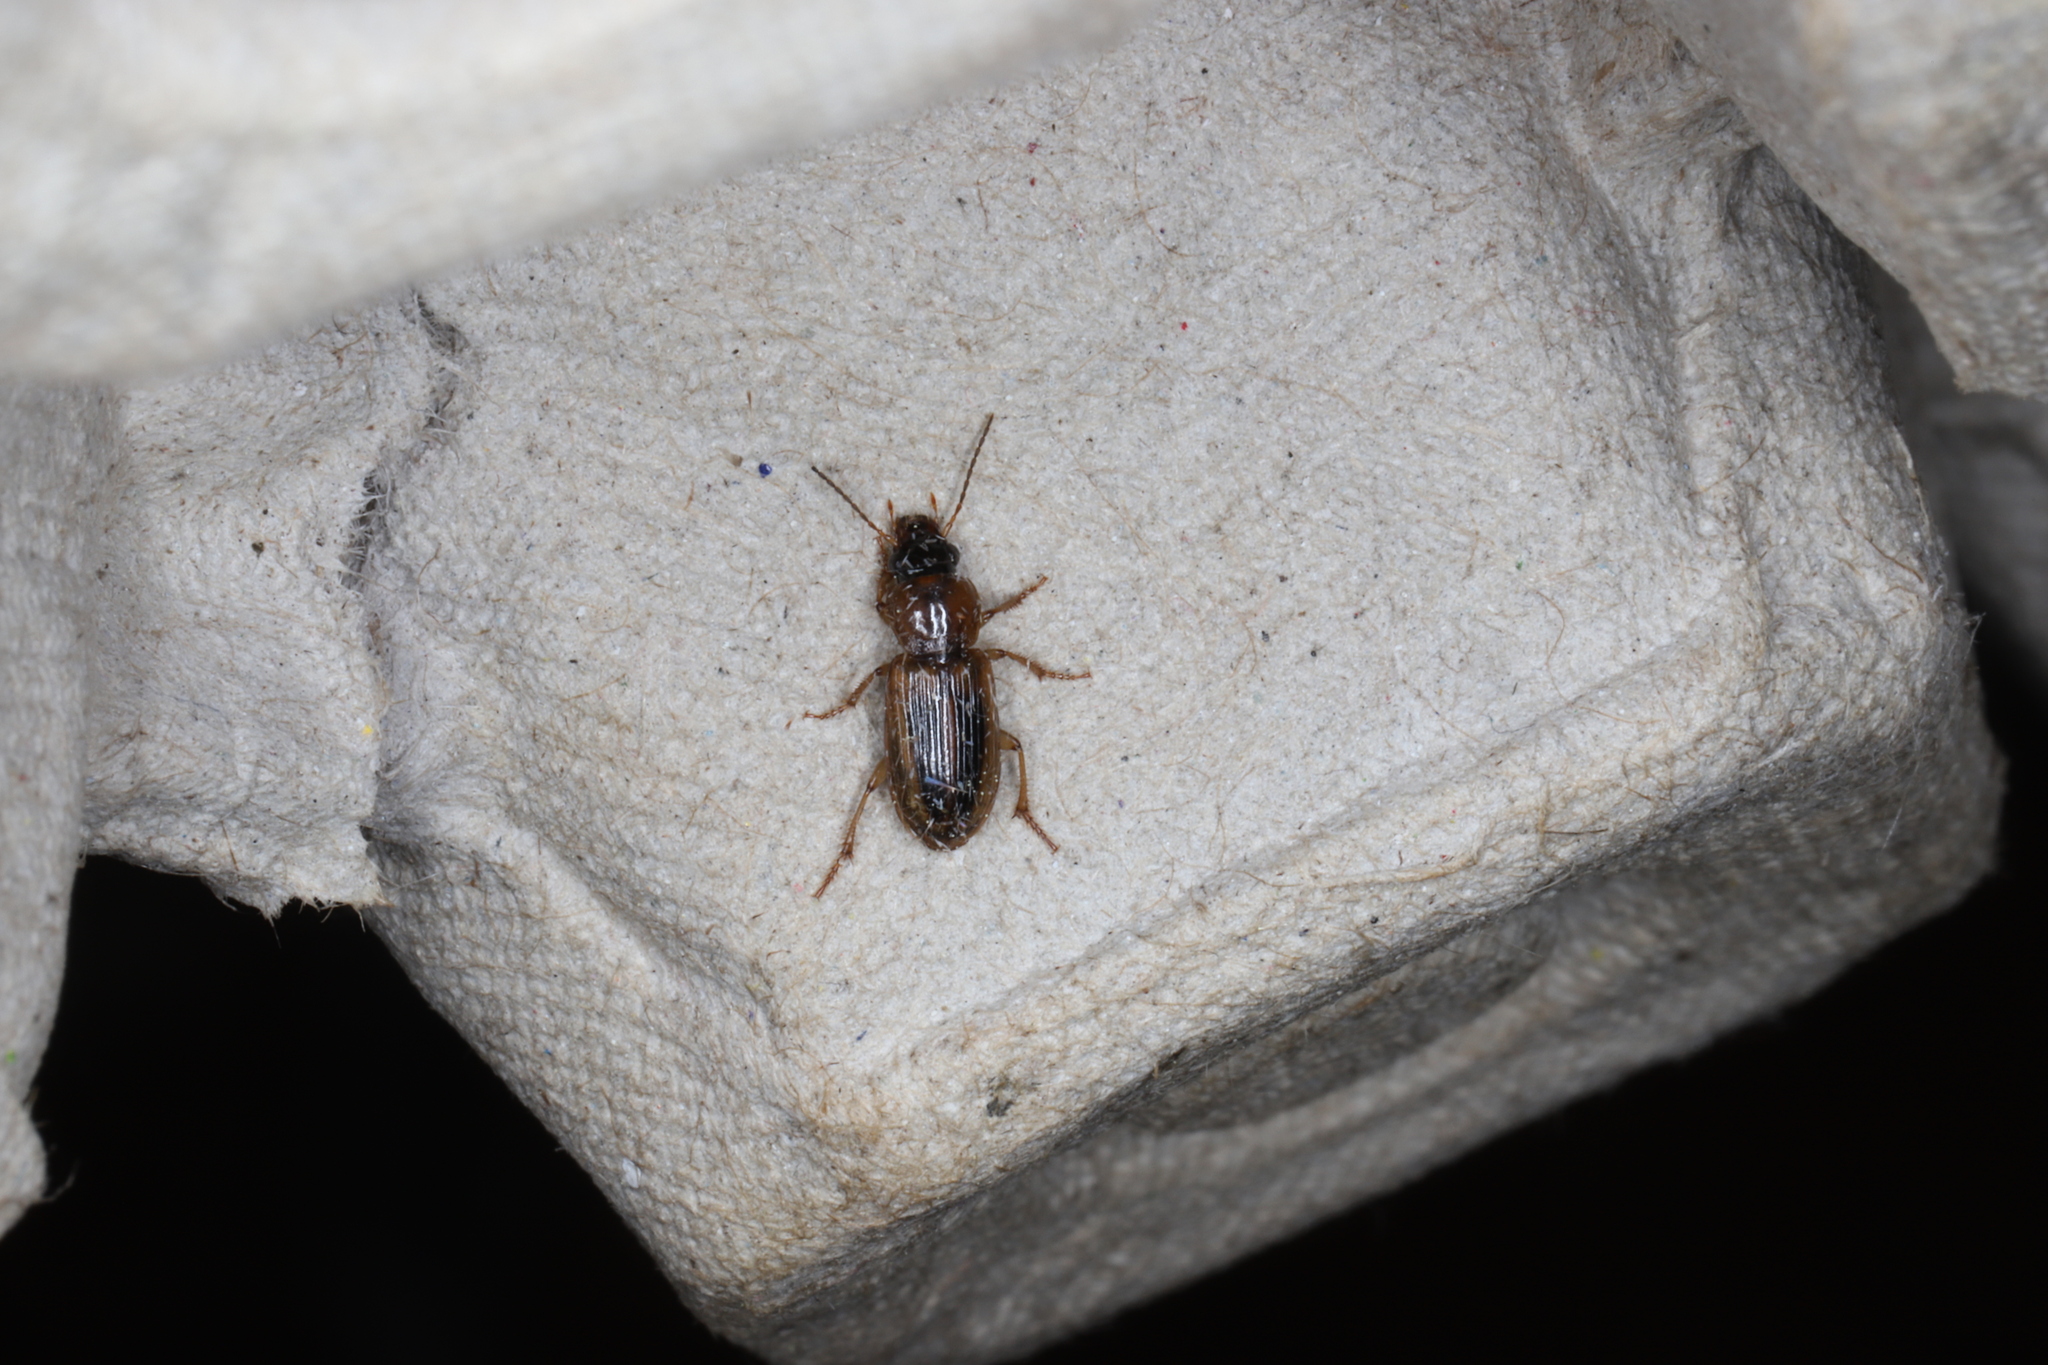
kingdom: Animalia
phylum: Arthropoda
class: Insecta
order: Coleoptera
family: Carabidae
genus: Stenolophus
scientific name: Stenolophus lecontei
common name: Leconte's seedcorn beetle
